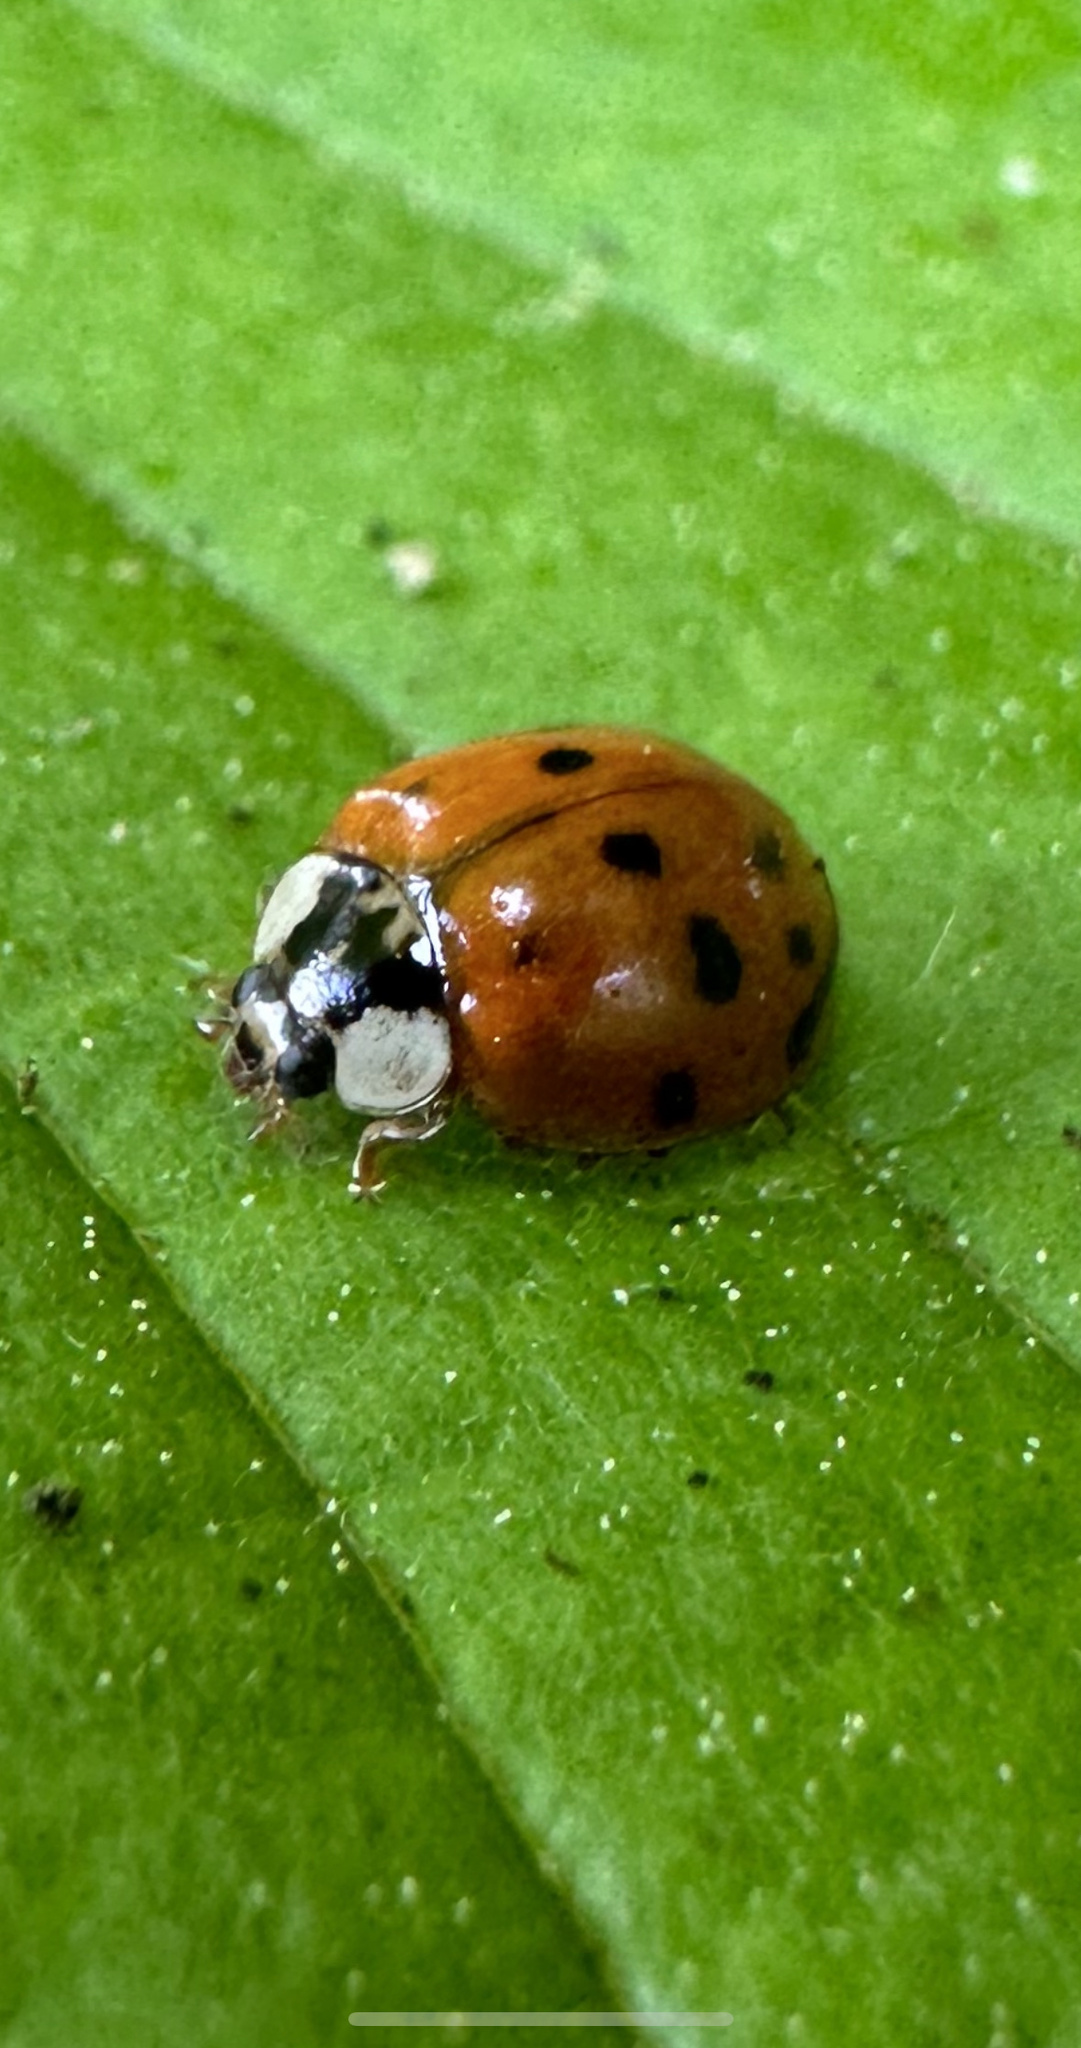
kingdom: Animalia
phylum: Arthropoda
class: Insecta
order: Coleoptera
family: Coccinellidae
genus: Harmonia
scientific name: Harmonia axyridis
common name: Harlequin ladybird
